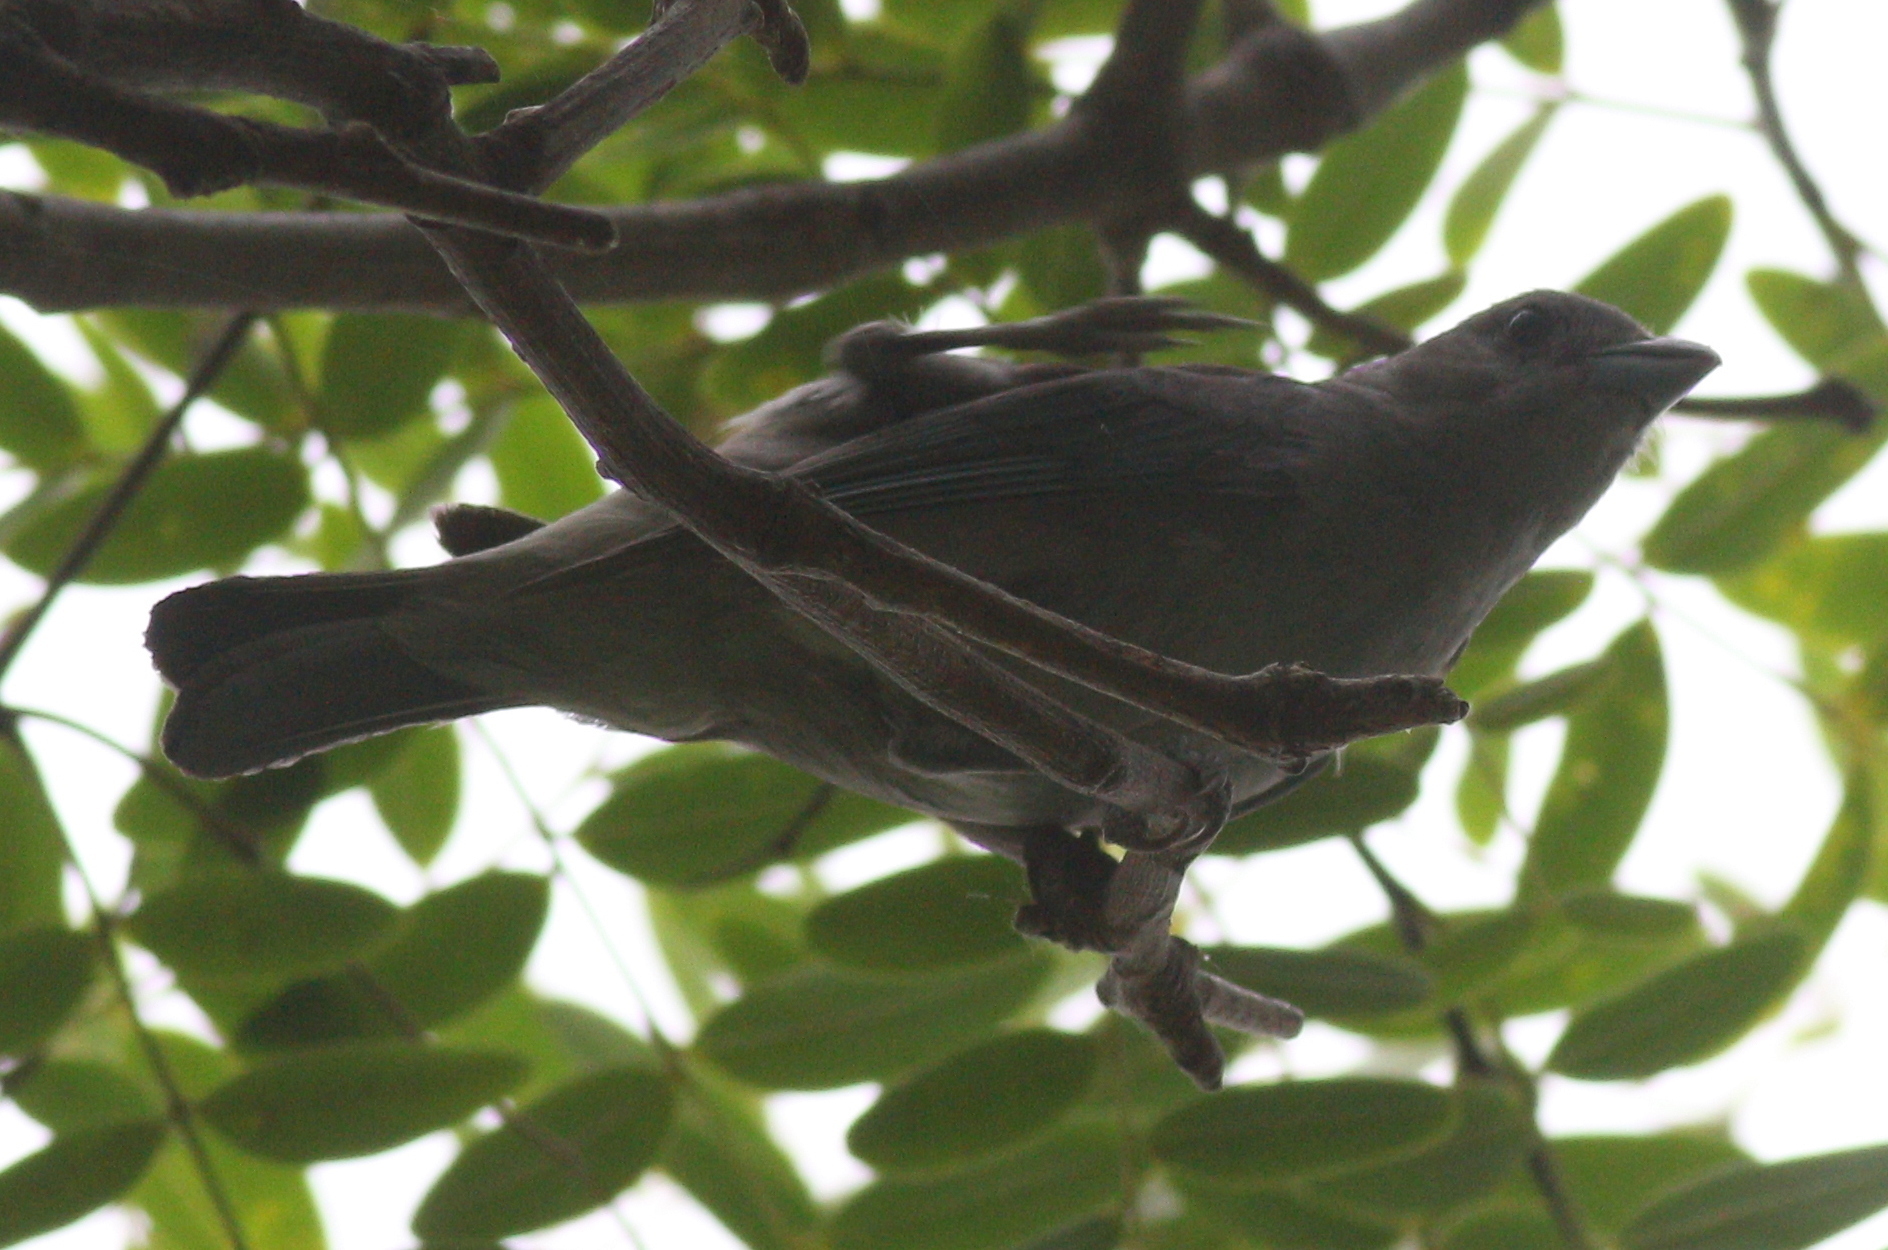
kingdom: Animalia
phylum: Chordata
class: Aves
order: Passeriformes
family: Thraupidae
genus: Thraupis
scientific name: Thraupis sayaca
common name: Sayaca tanager
